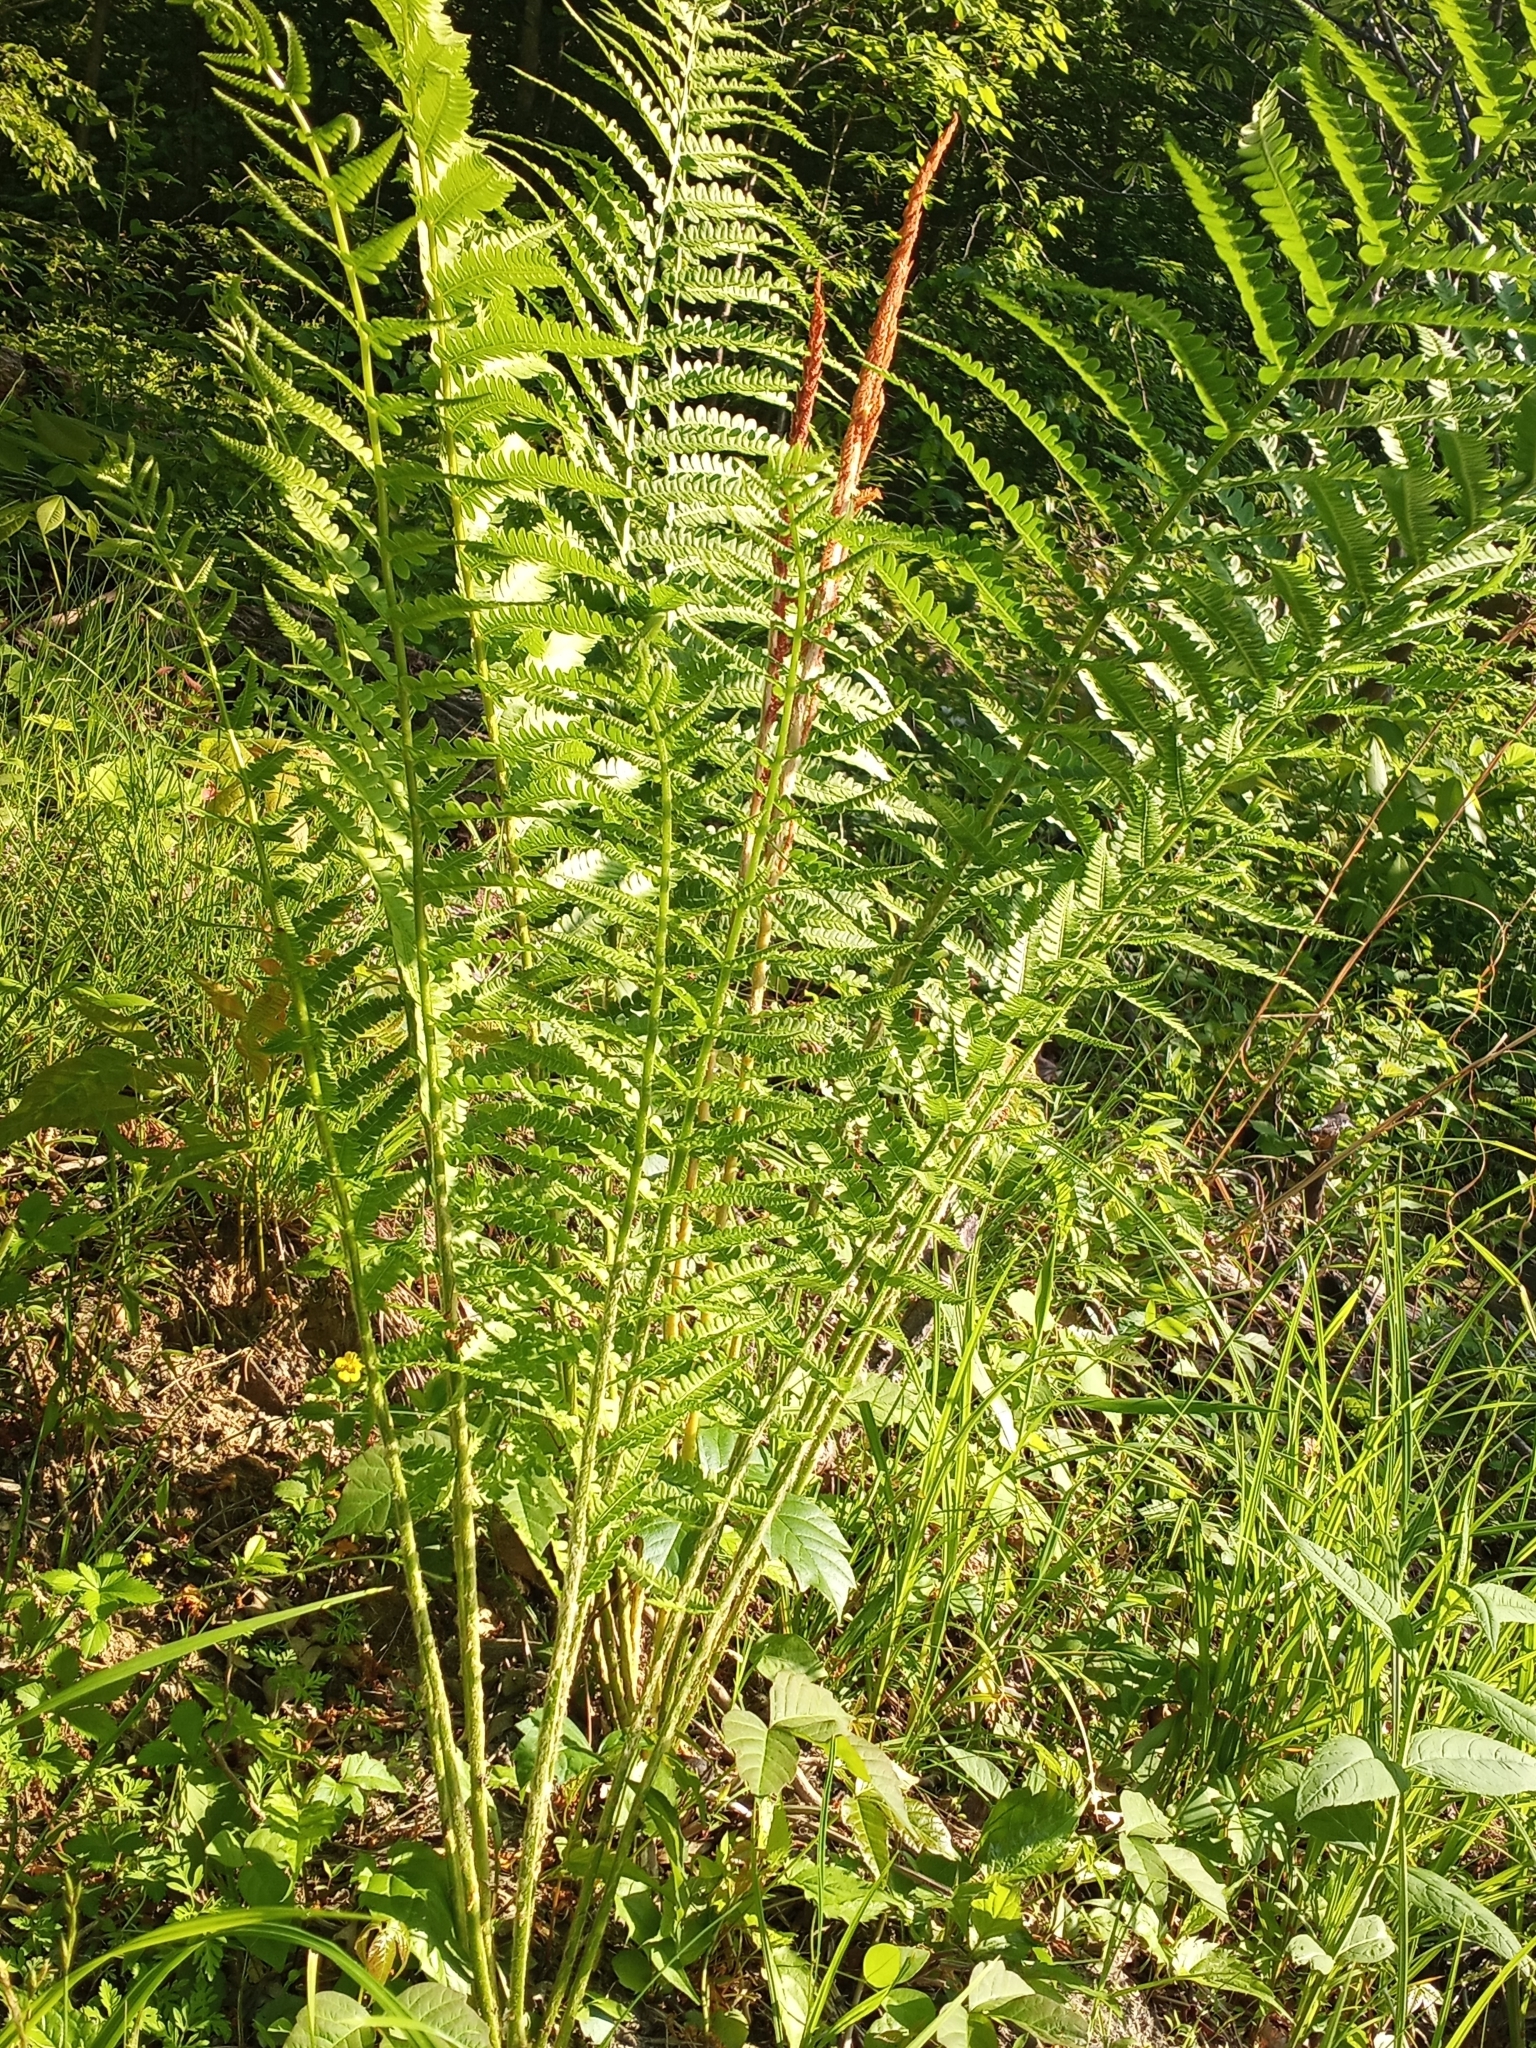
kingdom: Plantae
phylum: Tracheophyta
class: Polypodiopsida
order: Osmundales
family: Osmundaceae
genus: Osmundastrum
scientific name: Osmundastrum cinnamomeum
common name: Cinnamon fern
